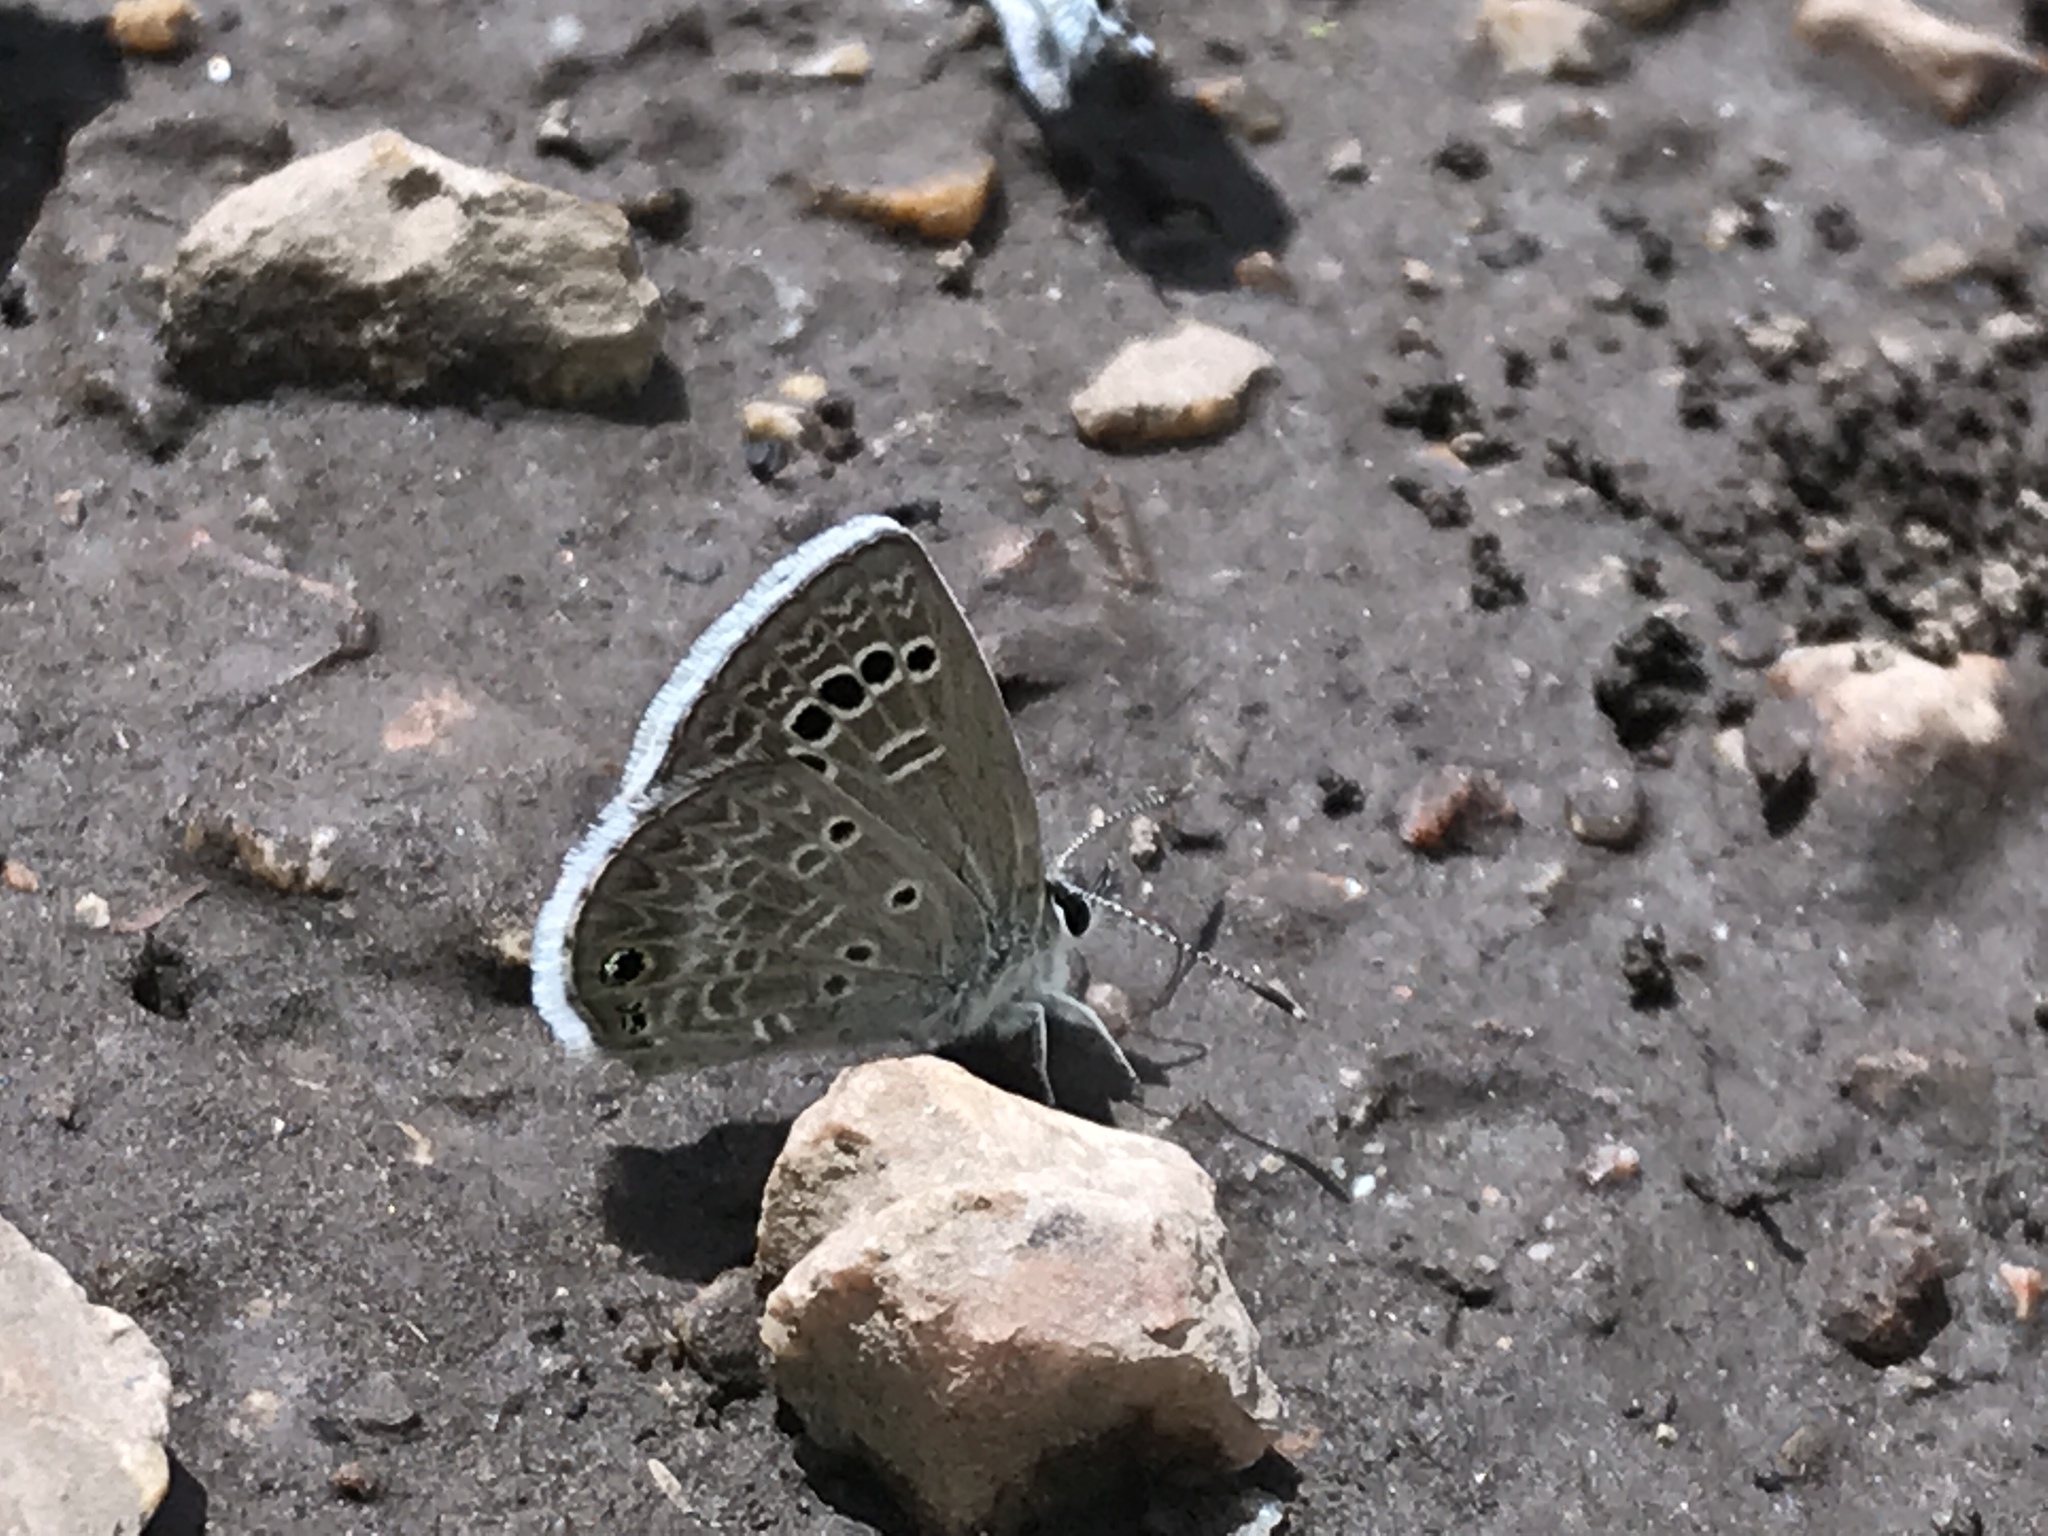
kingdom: Animalia
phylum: Arthropoda
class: Insecta
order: Lepidoptera
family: Lycaenidae
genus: Echinargus
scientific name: Echinargus isola
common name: Reakirt's blue
